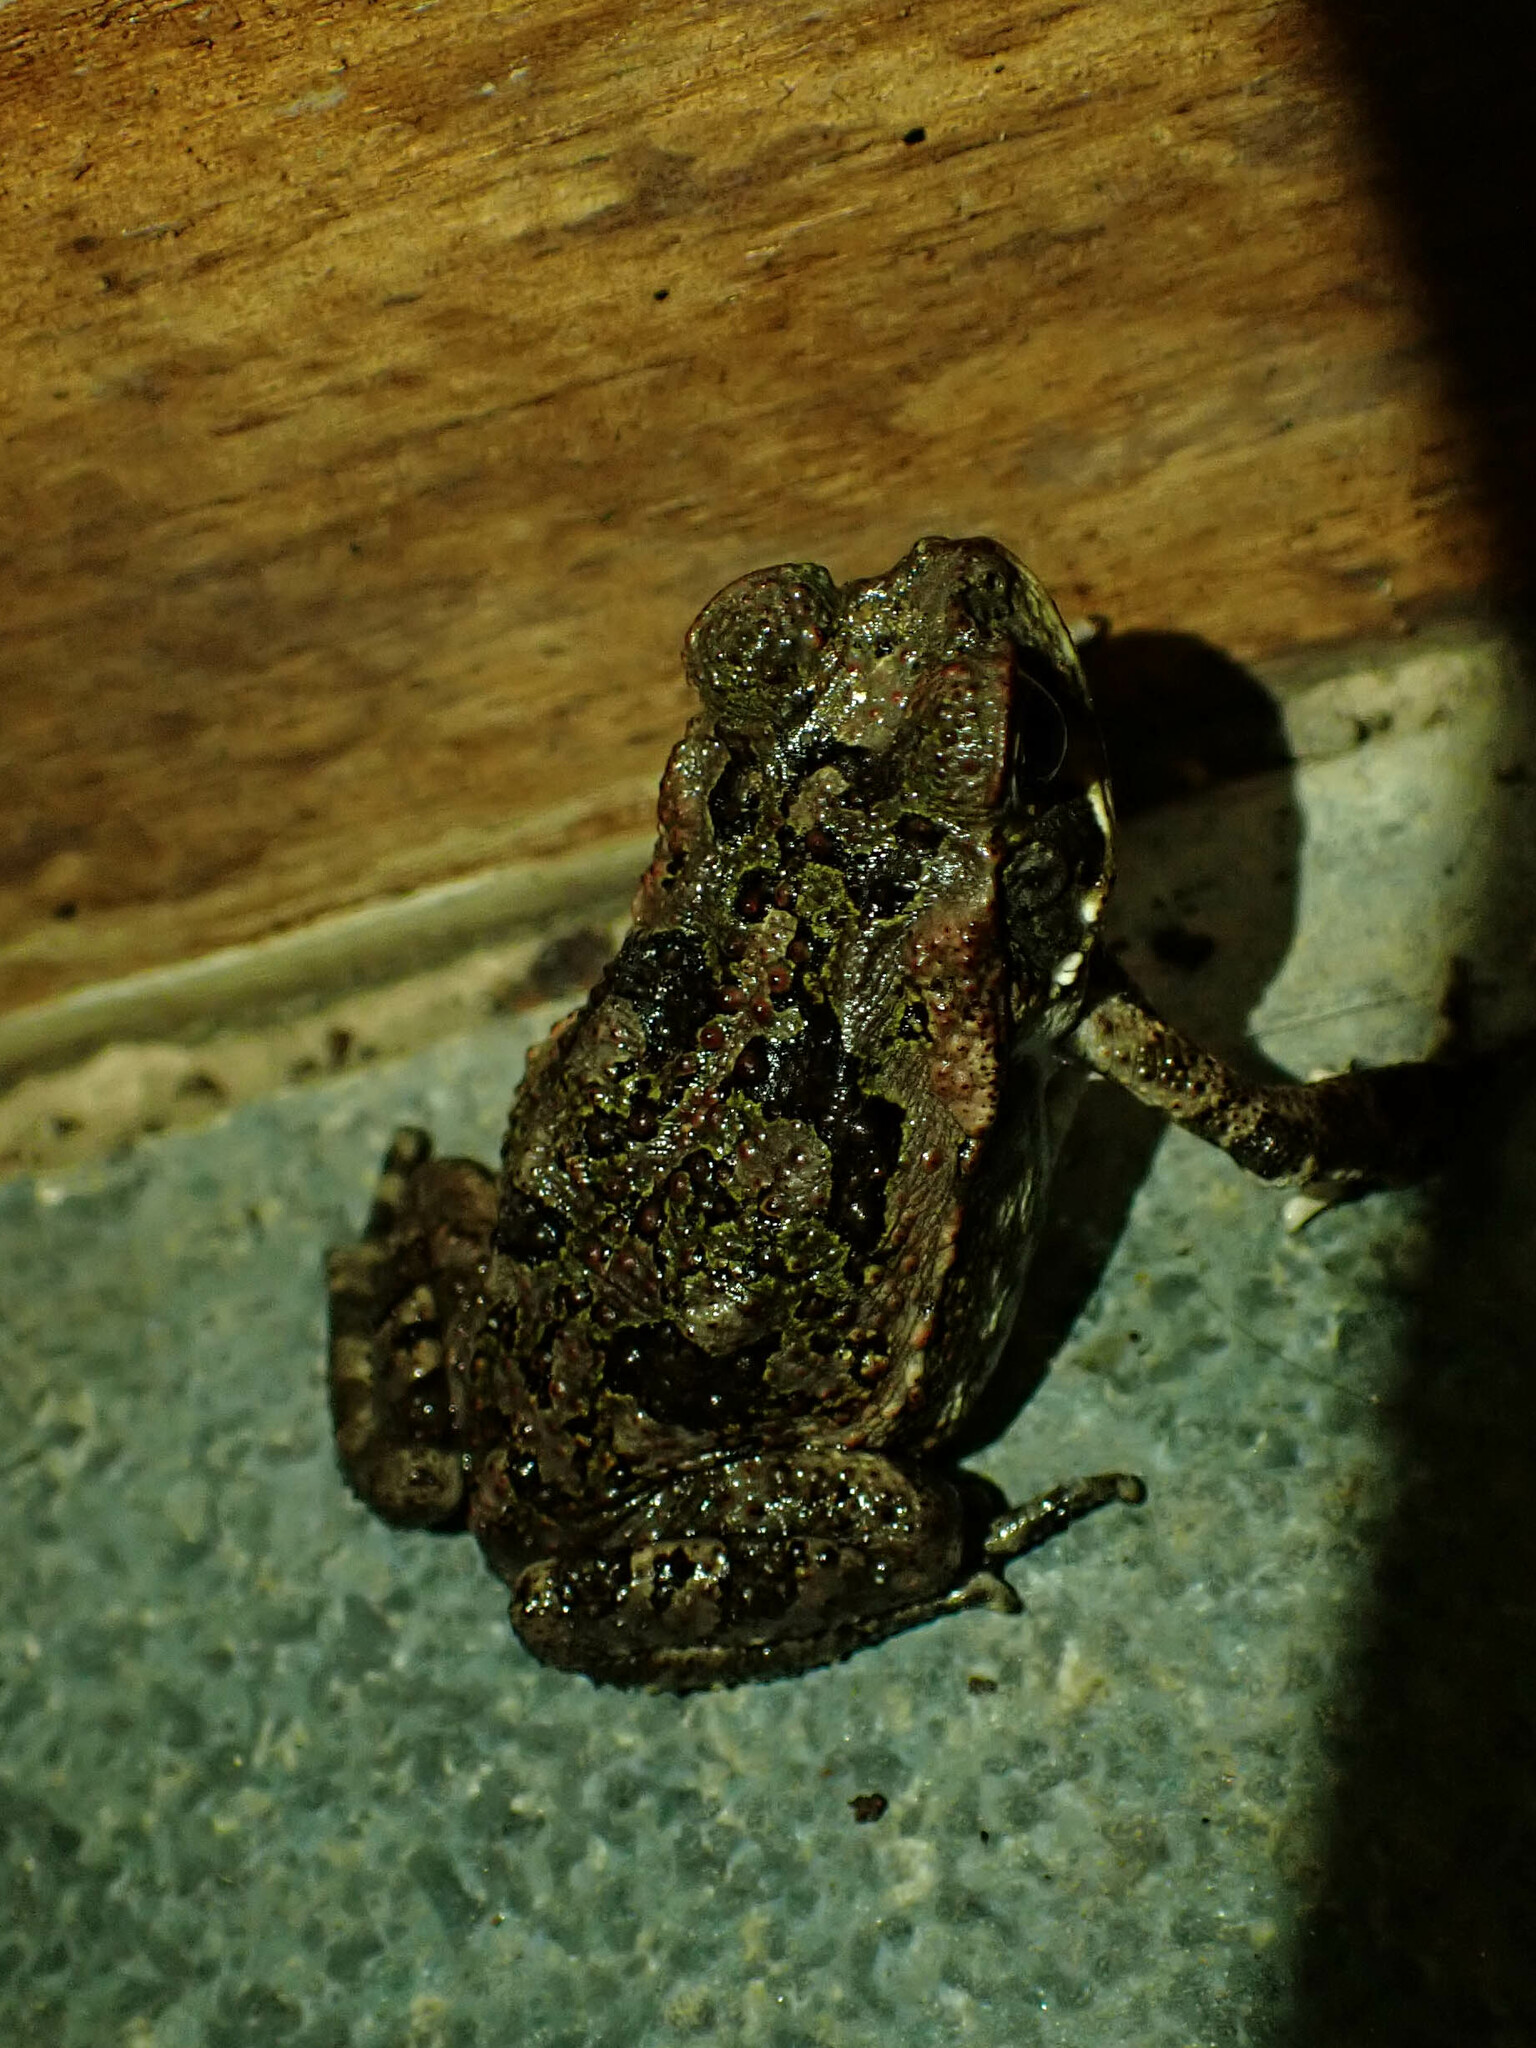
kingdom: Animalia
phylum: Chordata
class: Amphibia
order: Anura
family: Bufonidae
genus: Rhinella
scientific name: Rhinella horribilis
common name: Mesoamerican cane toad
